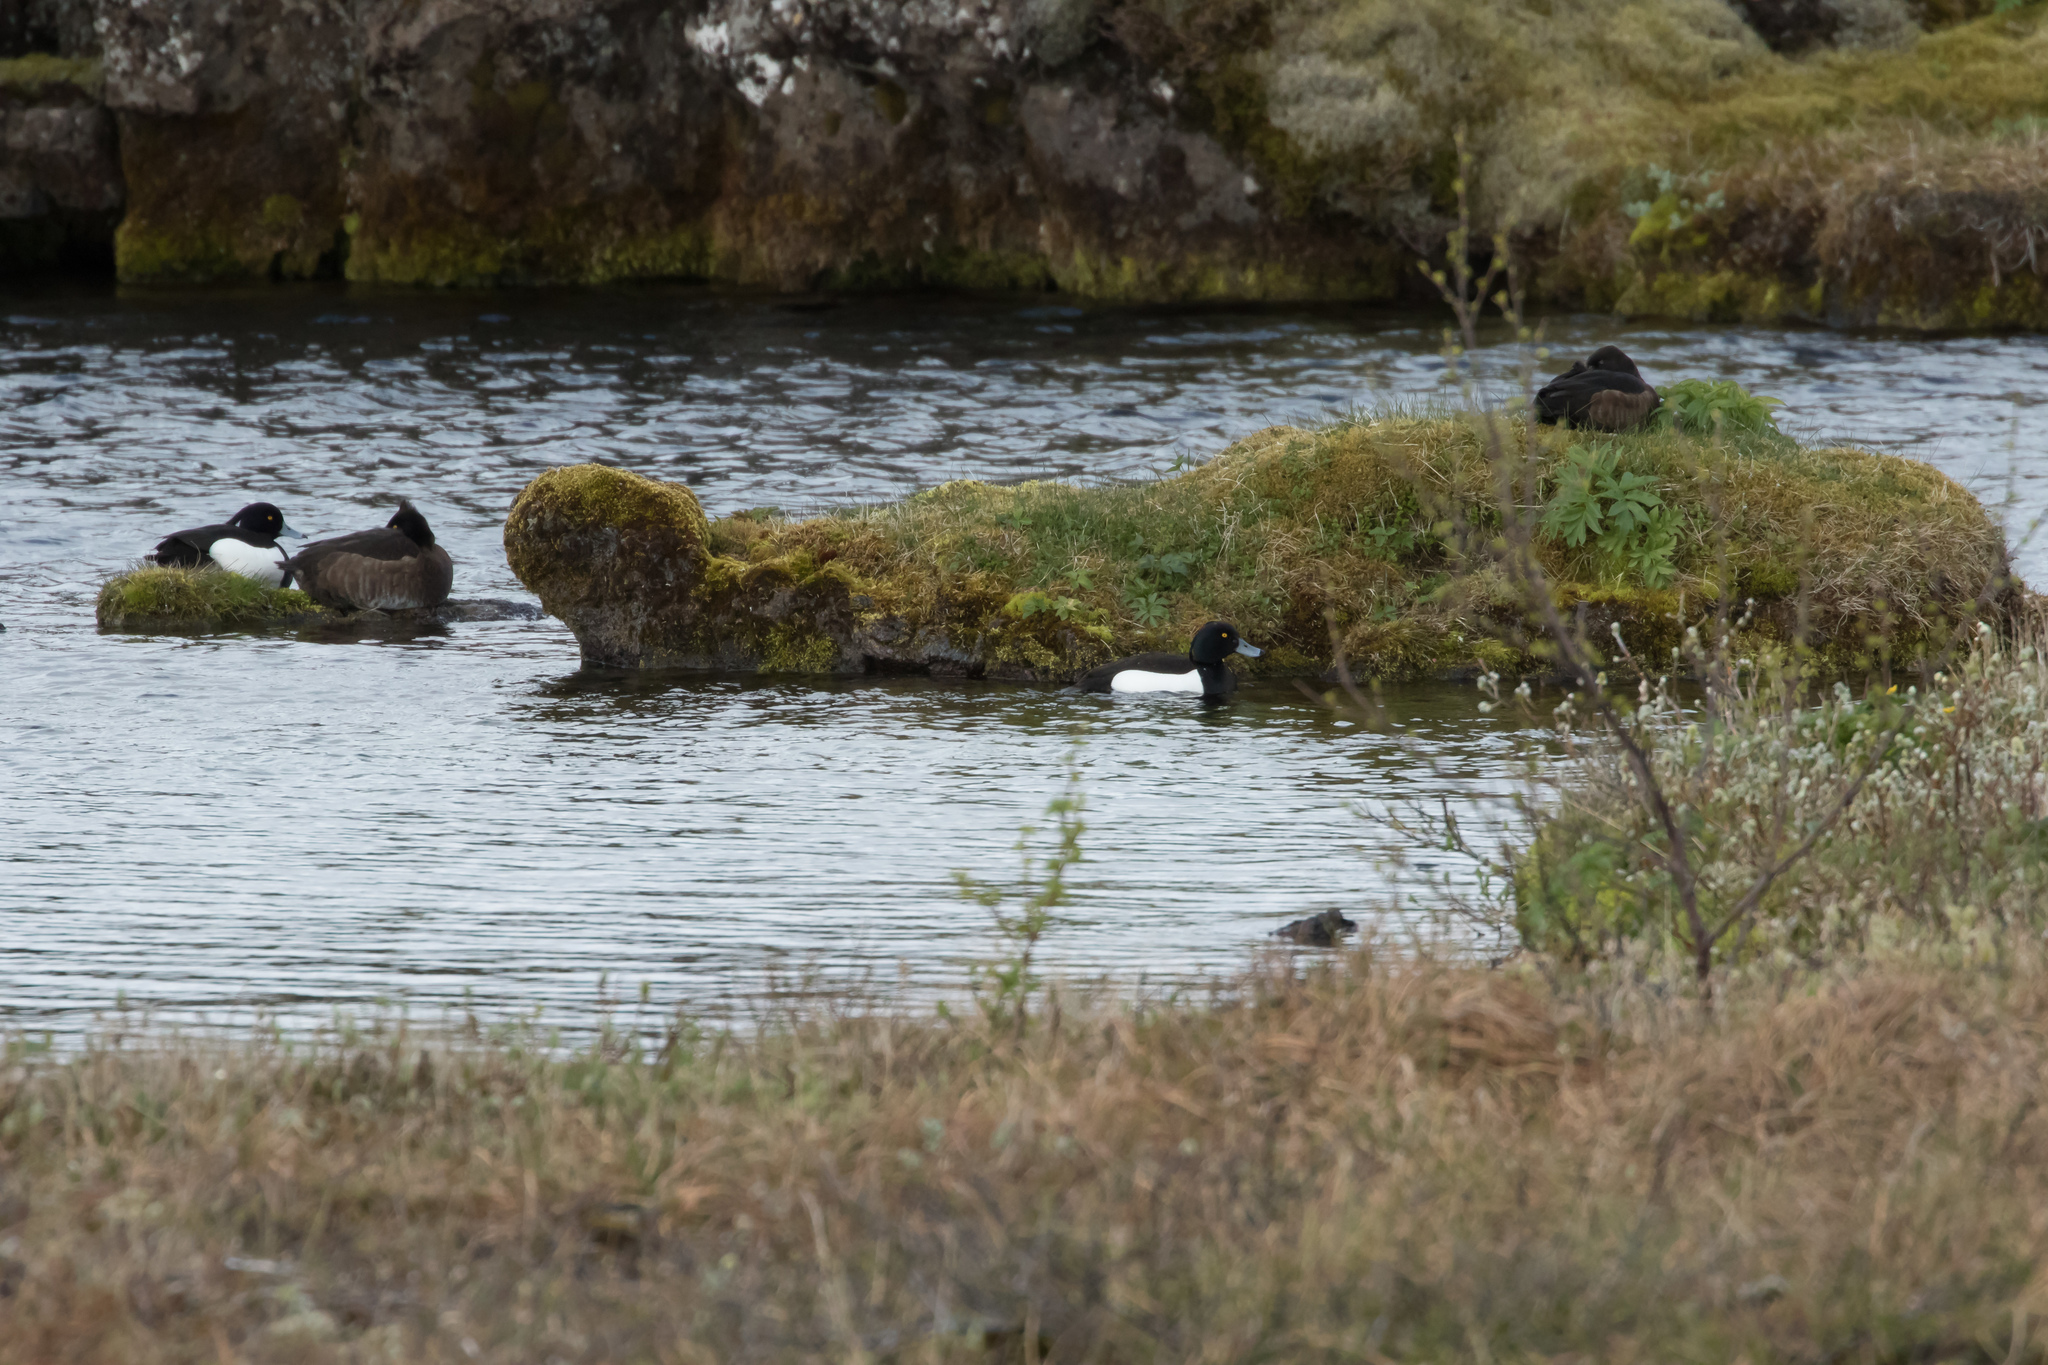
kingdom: Animalia
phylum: Chordata
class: Aves
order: Anseriformes
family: Anatidae
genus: Aythya
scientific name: Aythya fuligula
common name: Tufted duck
